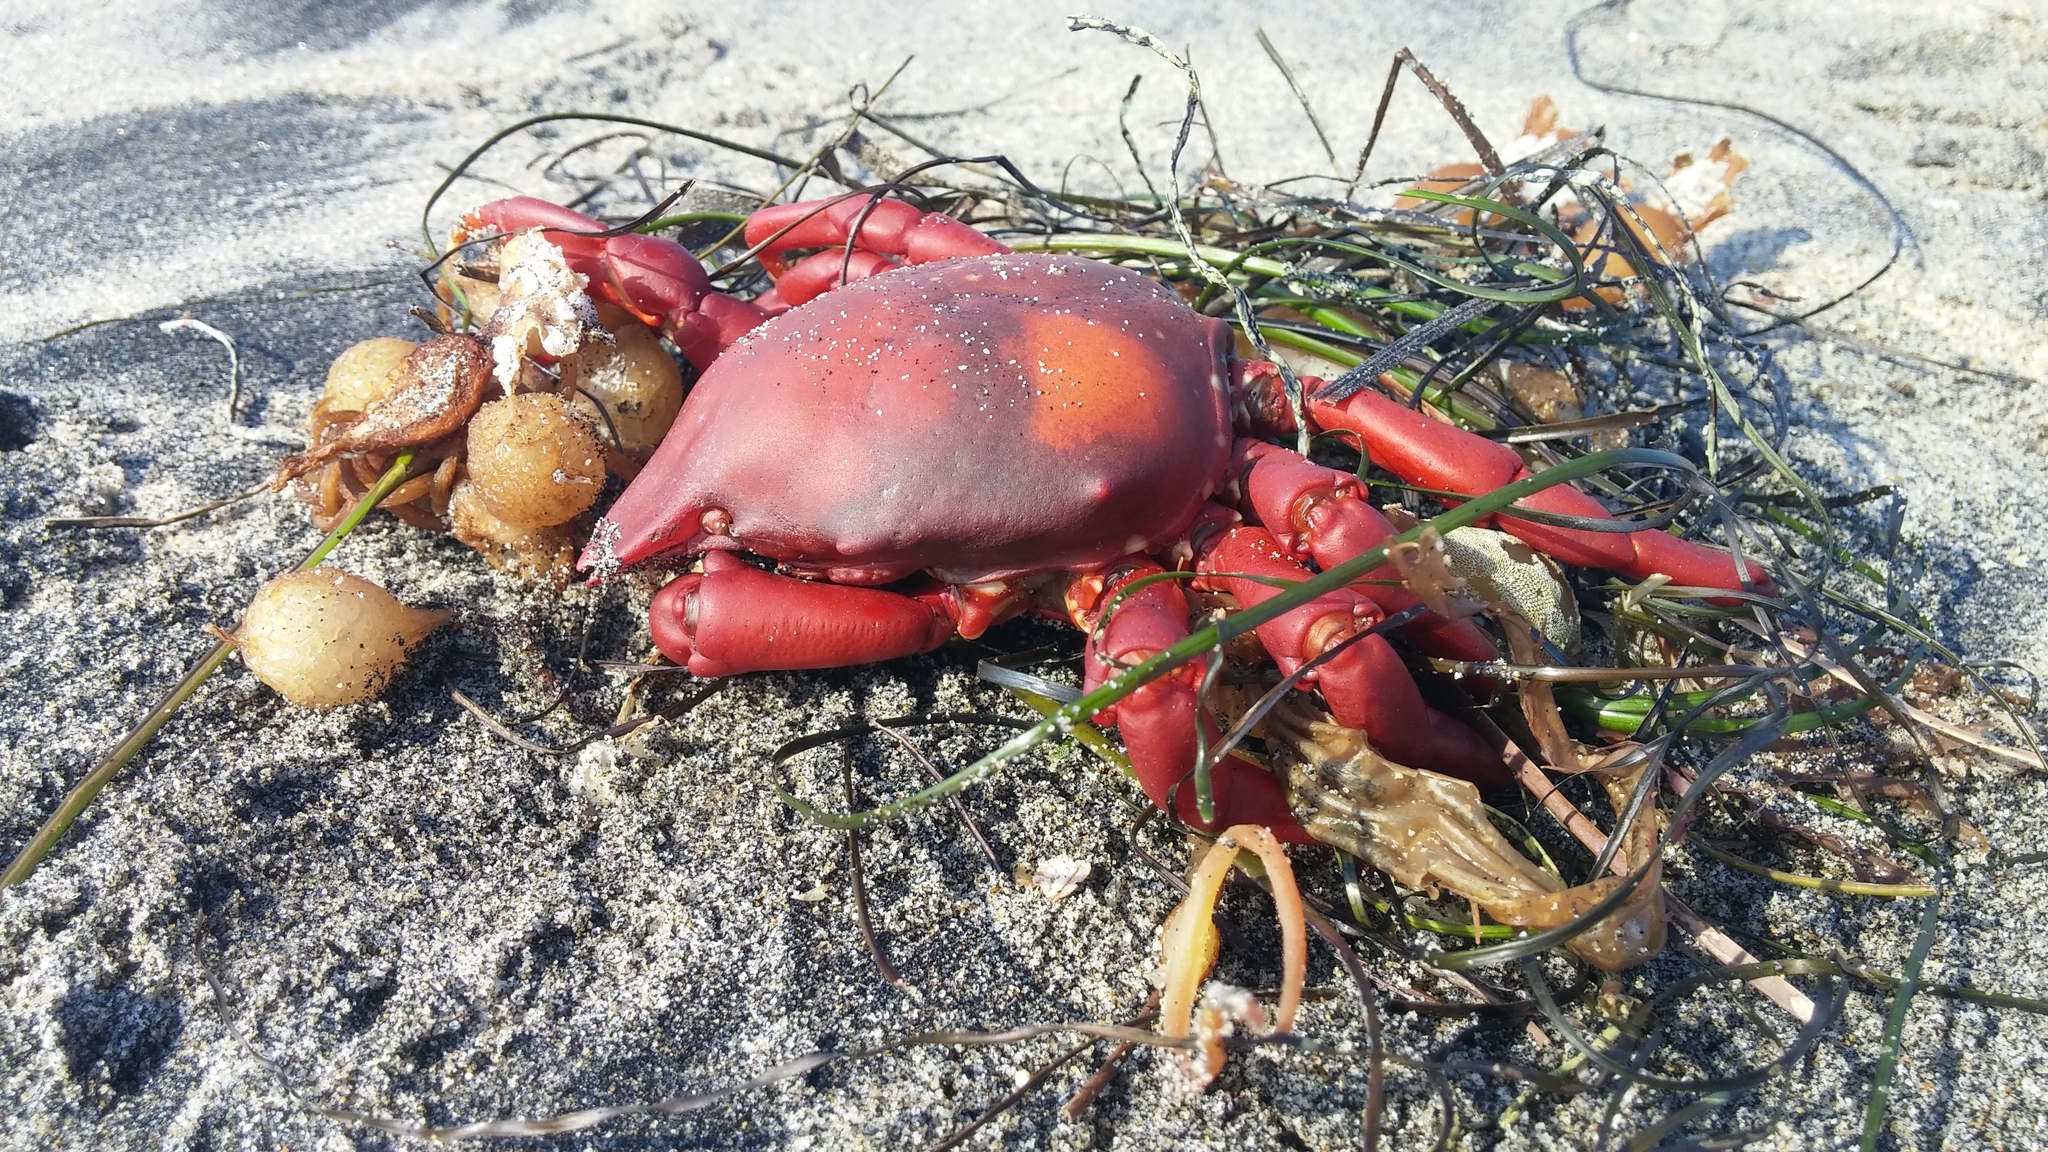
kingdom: Animalia
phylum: Arthropoda
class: Malacostraca
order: Decapoda
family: Epialtidae
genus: Taliepus
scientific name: Taliepus nuttallii
